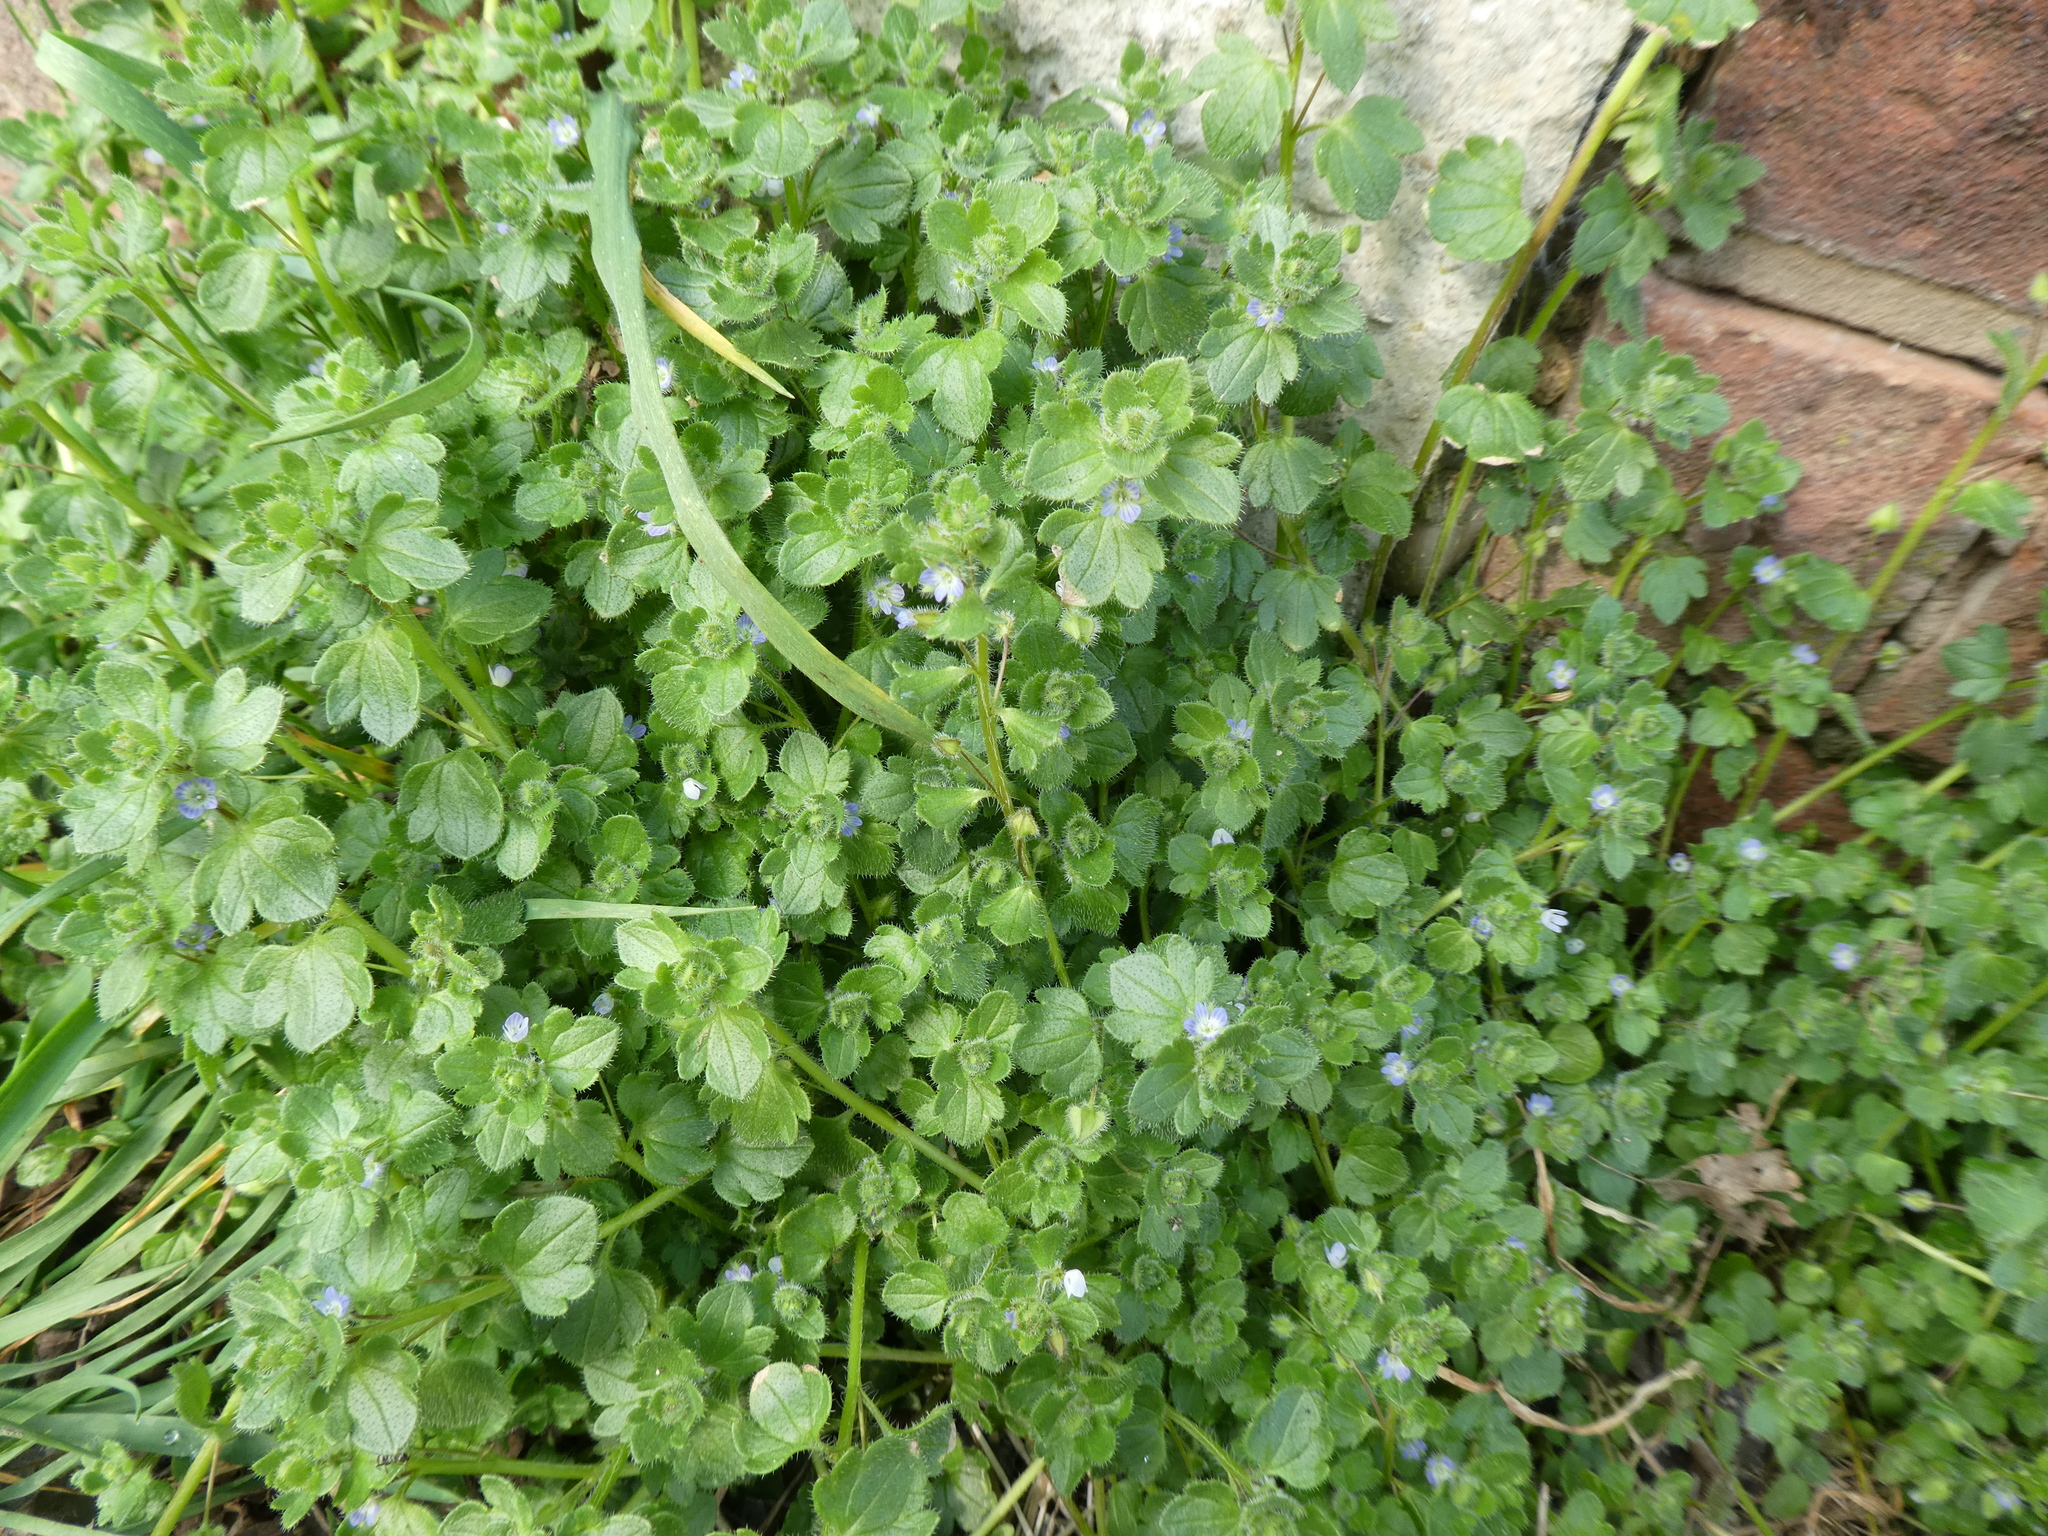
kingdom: Plantae
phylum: Tracheophyta
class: Magnoliopsida
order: Lamiales
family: Plantaginaceae
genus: Veronica
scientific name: Veronica hederifolia
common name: Ivy-leaved speedwell
